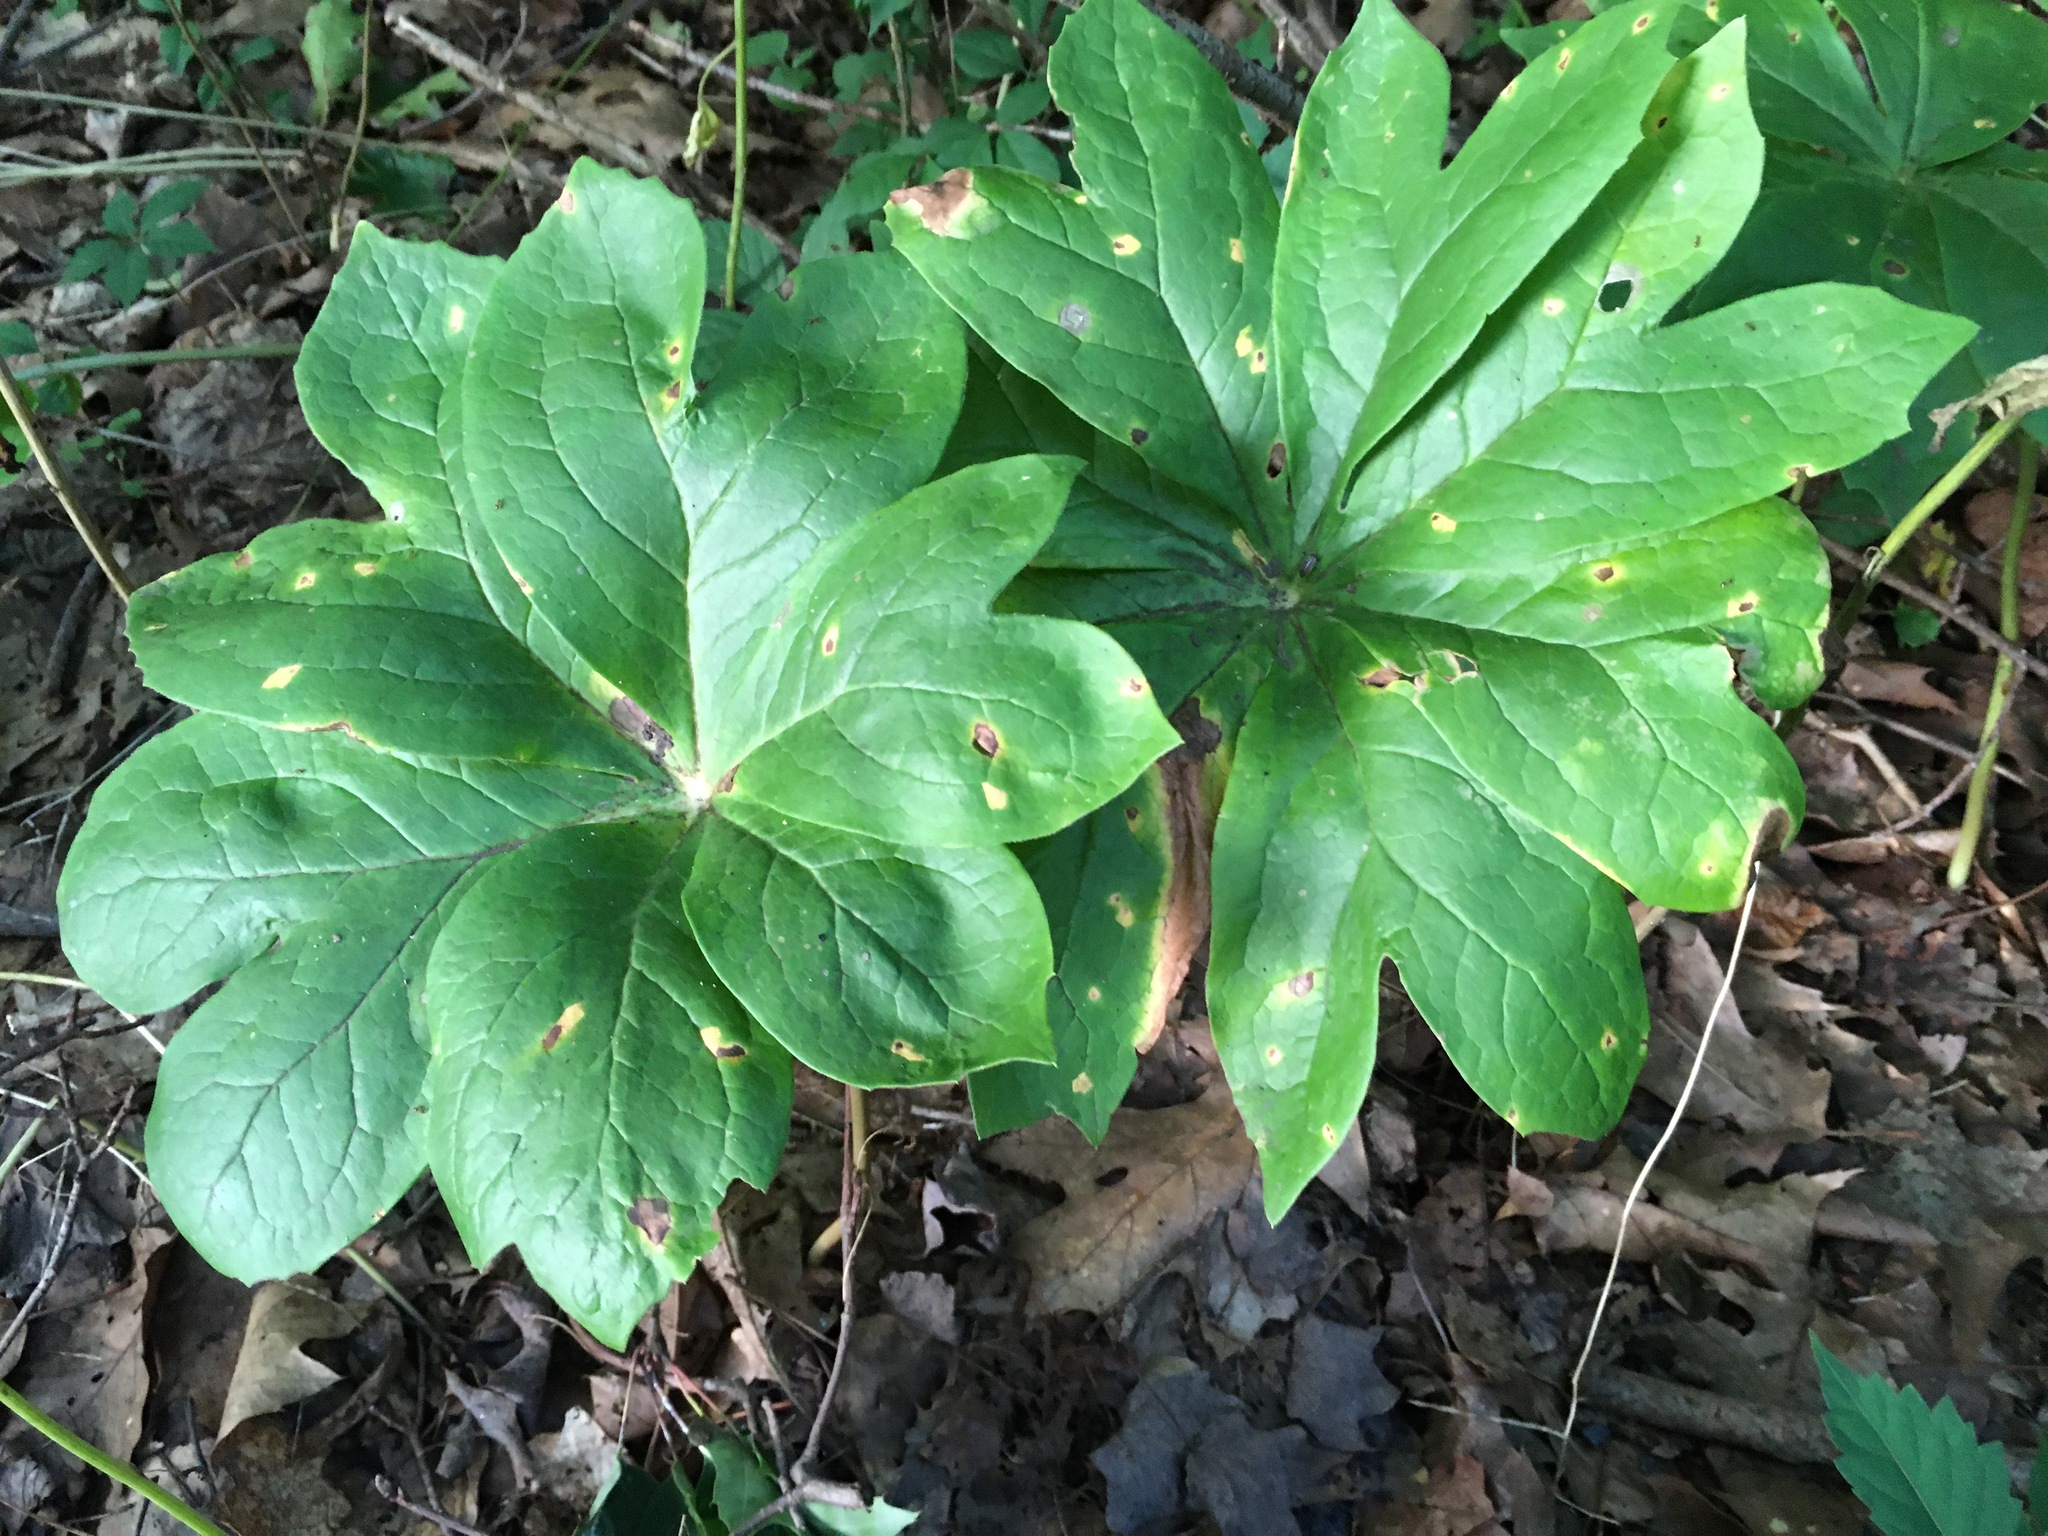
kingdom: Plantae
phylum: Tracheophyta
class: Magnoliopsida
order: Ranunculales
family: Berberidaceae
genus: Podophyllum
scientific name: Podophyllum peltatum
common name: Wild mandrake
